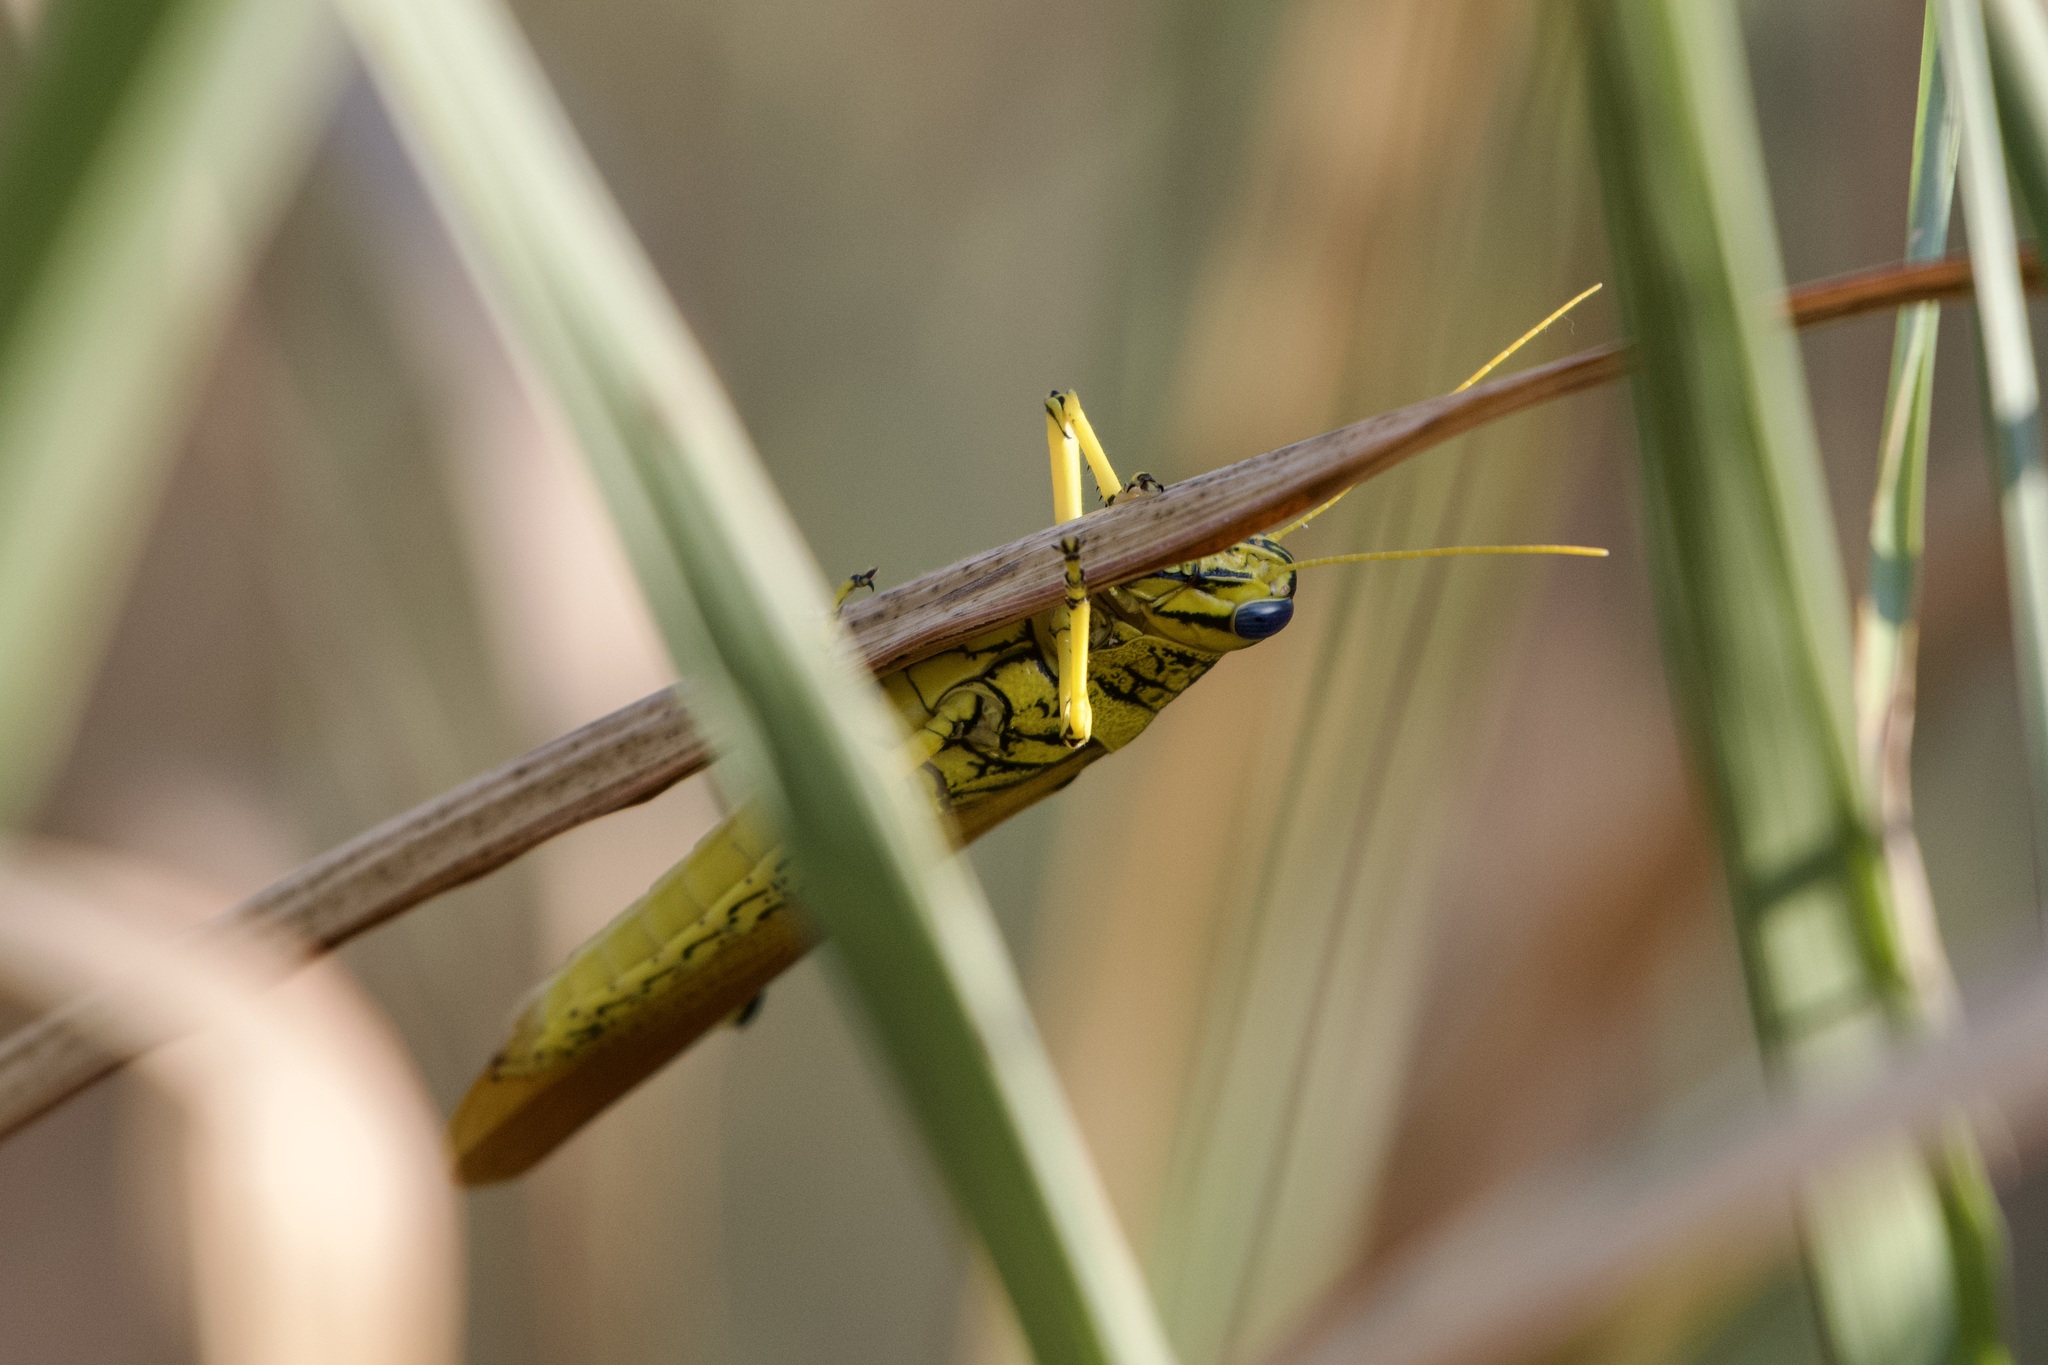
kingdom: Animalia
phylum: Arthropoda
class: Insecta
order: Orthoptera
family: Acrididae
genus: Schistocerca
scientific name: Schistocerca lineata
